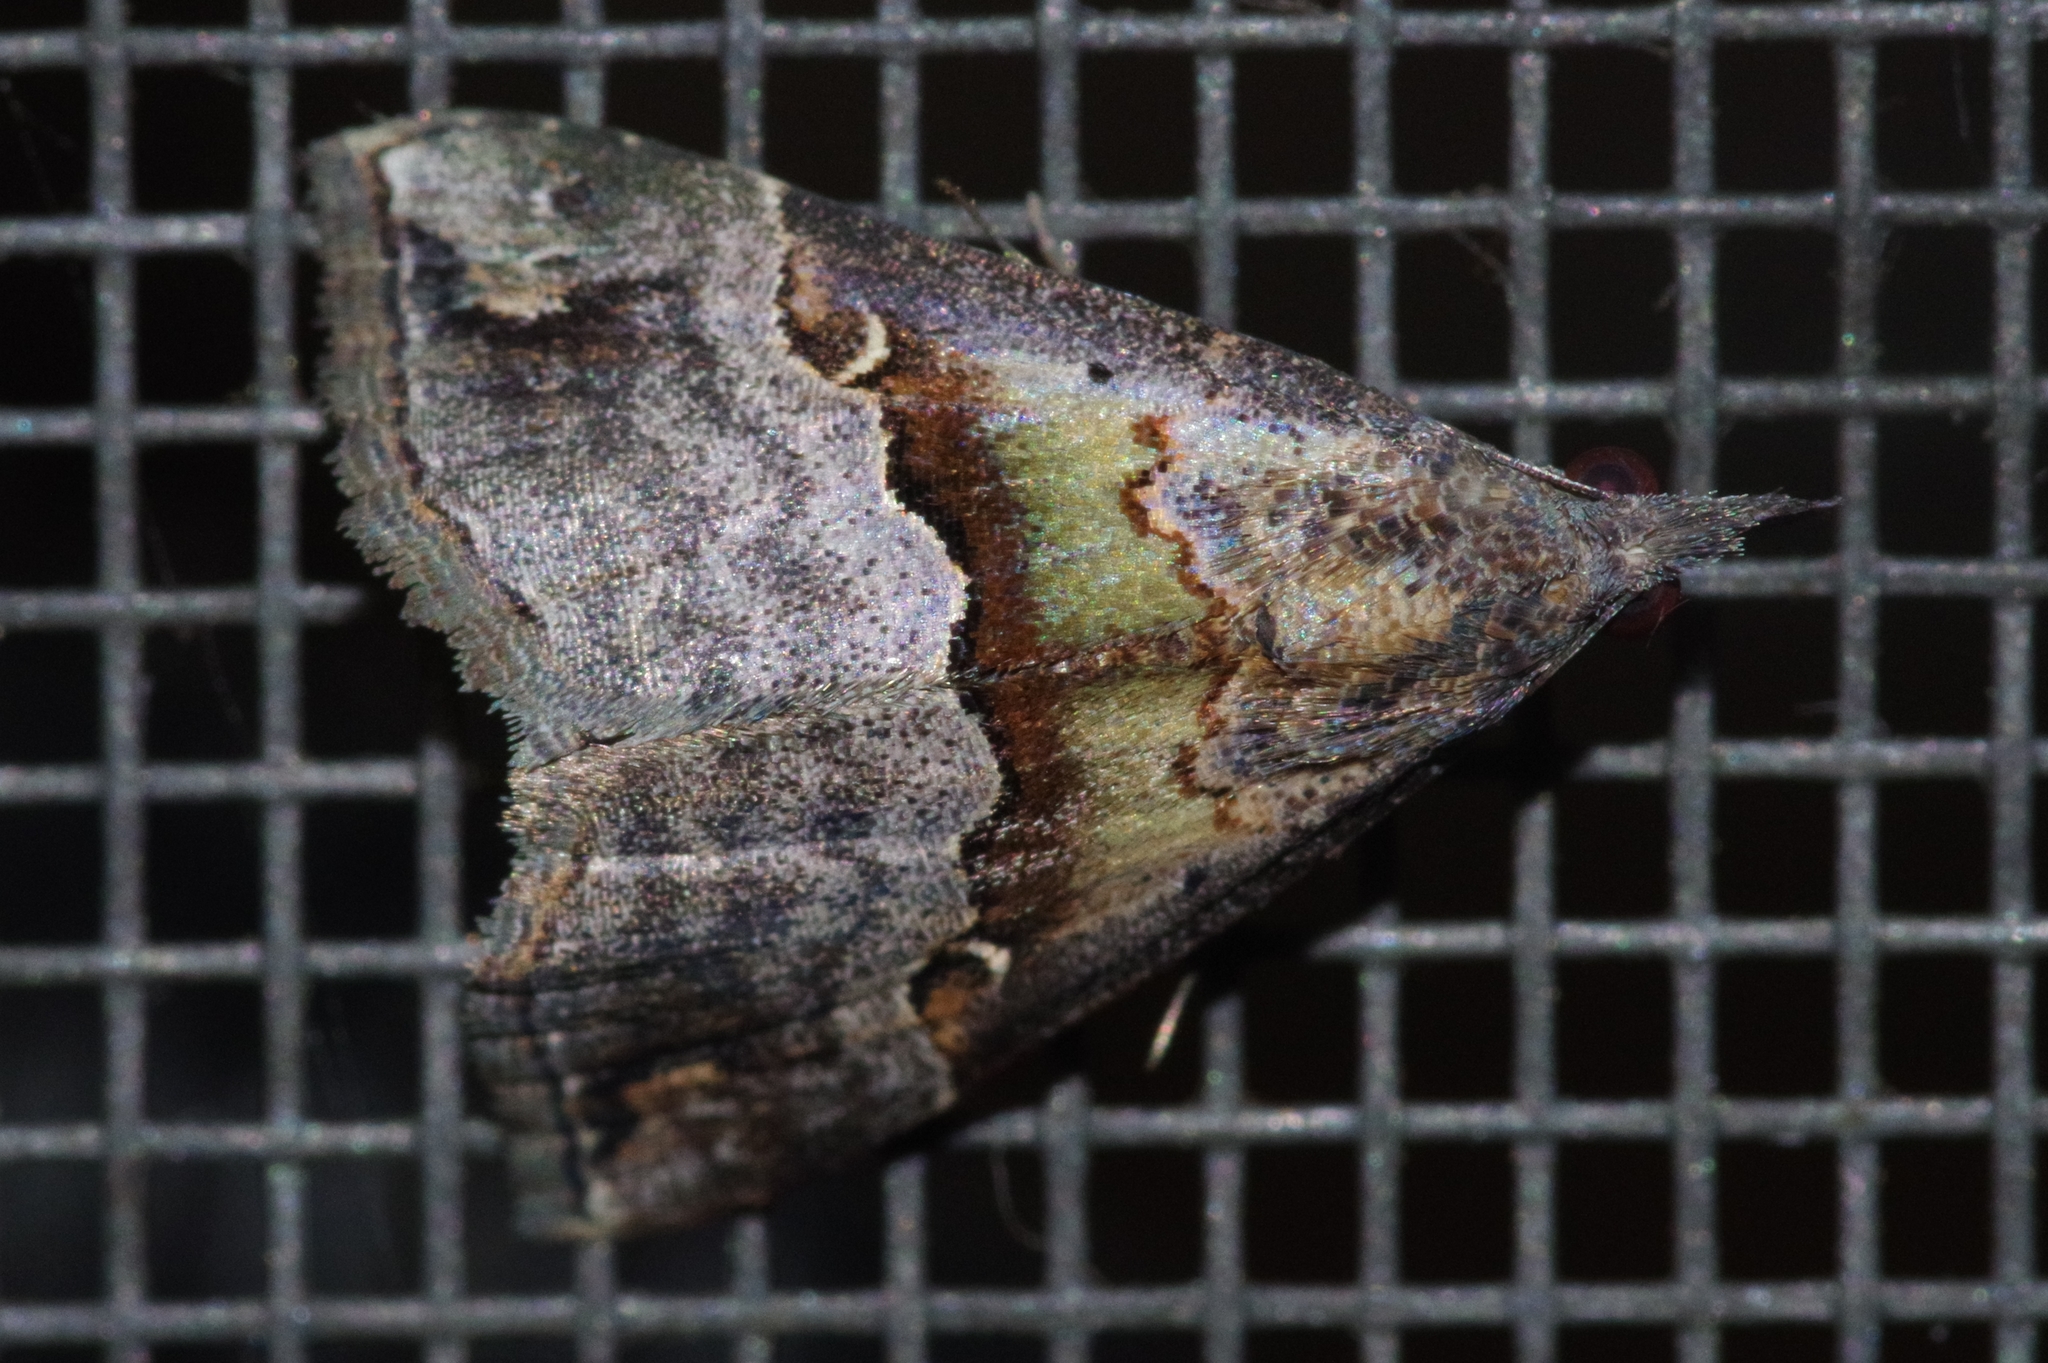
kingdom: Animalia
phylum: Arthropoda
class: Insecta
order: Lepidoptera
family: Erebidae
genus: Hypena
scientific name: Hypena indicatalis
